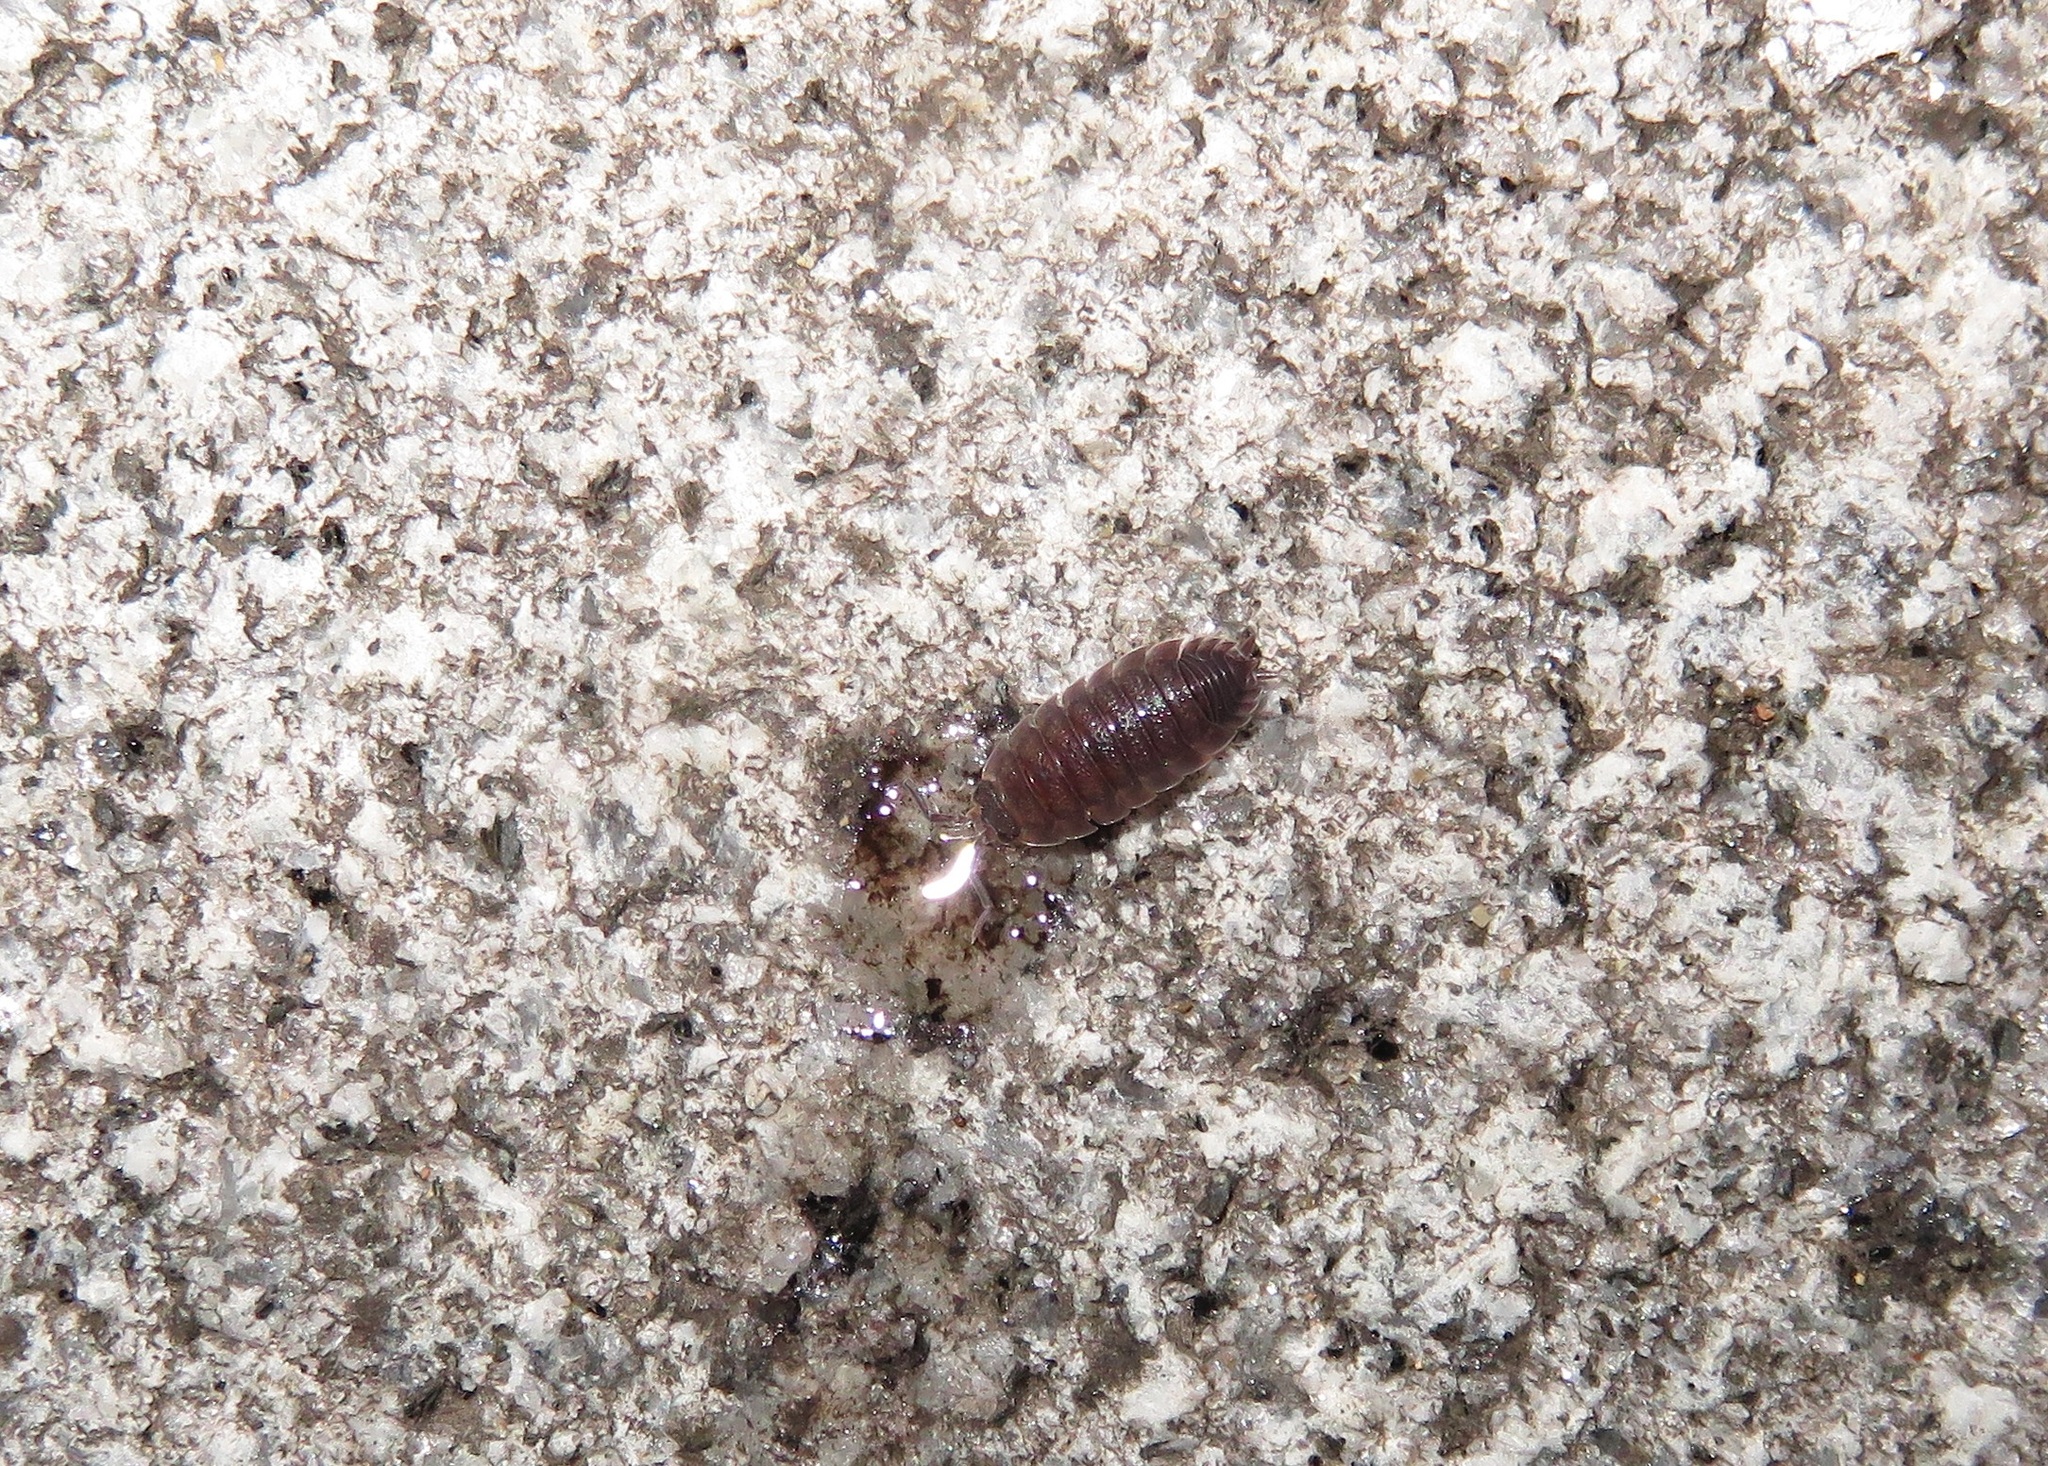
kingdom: Animalia
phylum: Arthropoda
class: Malacostraca
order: Isopoda
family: Porcellionidae
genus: Porcellio
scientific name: Porcellio scaber
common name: Common rough woodlouse
